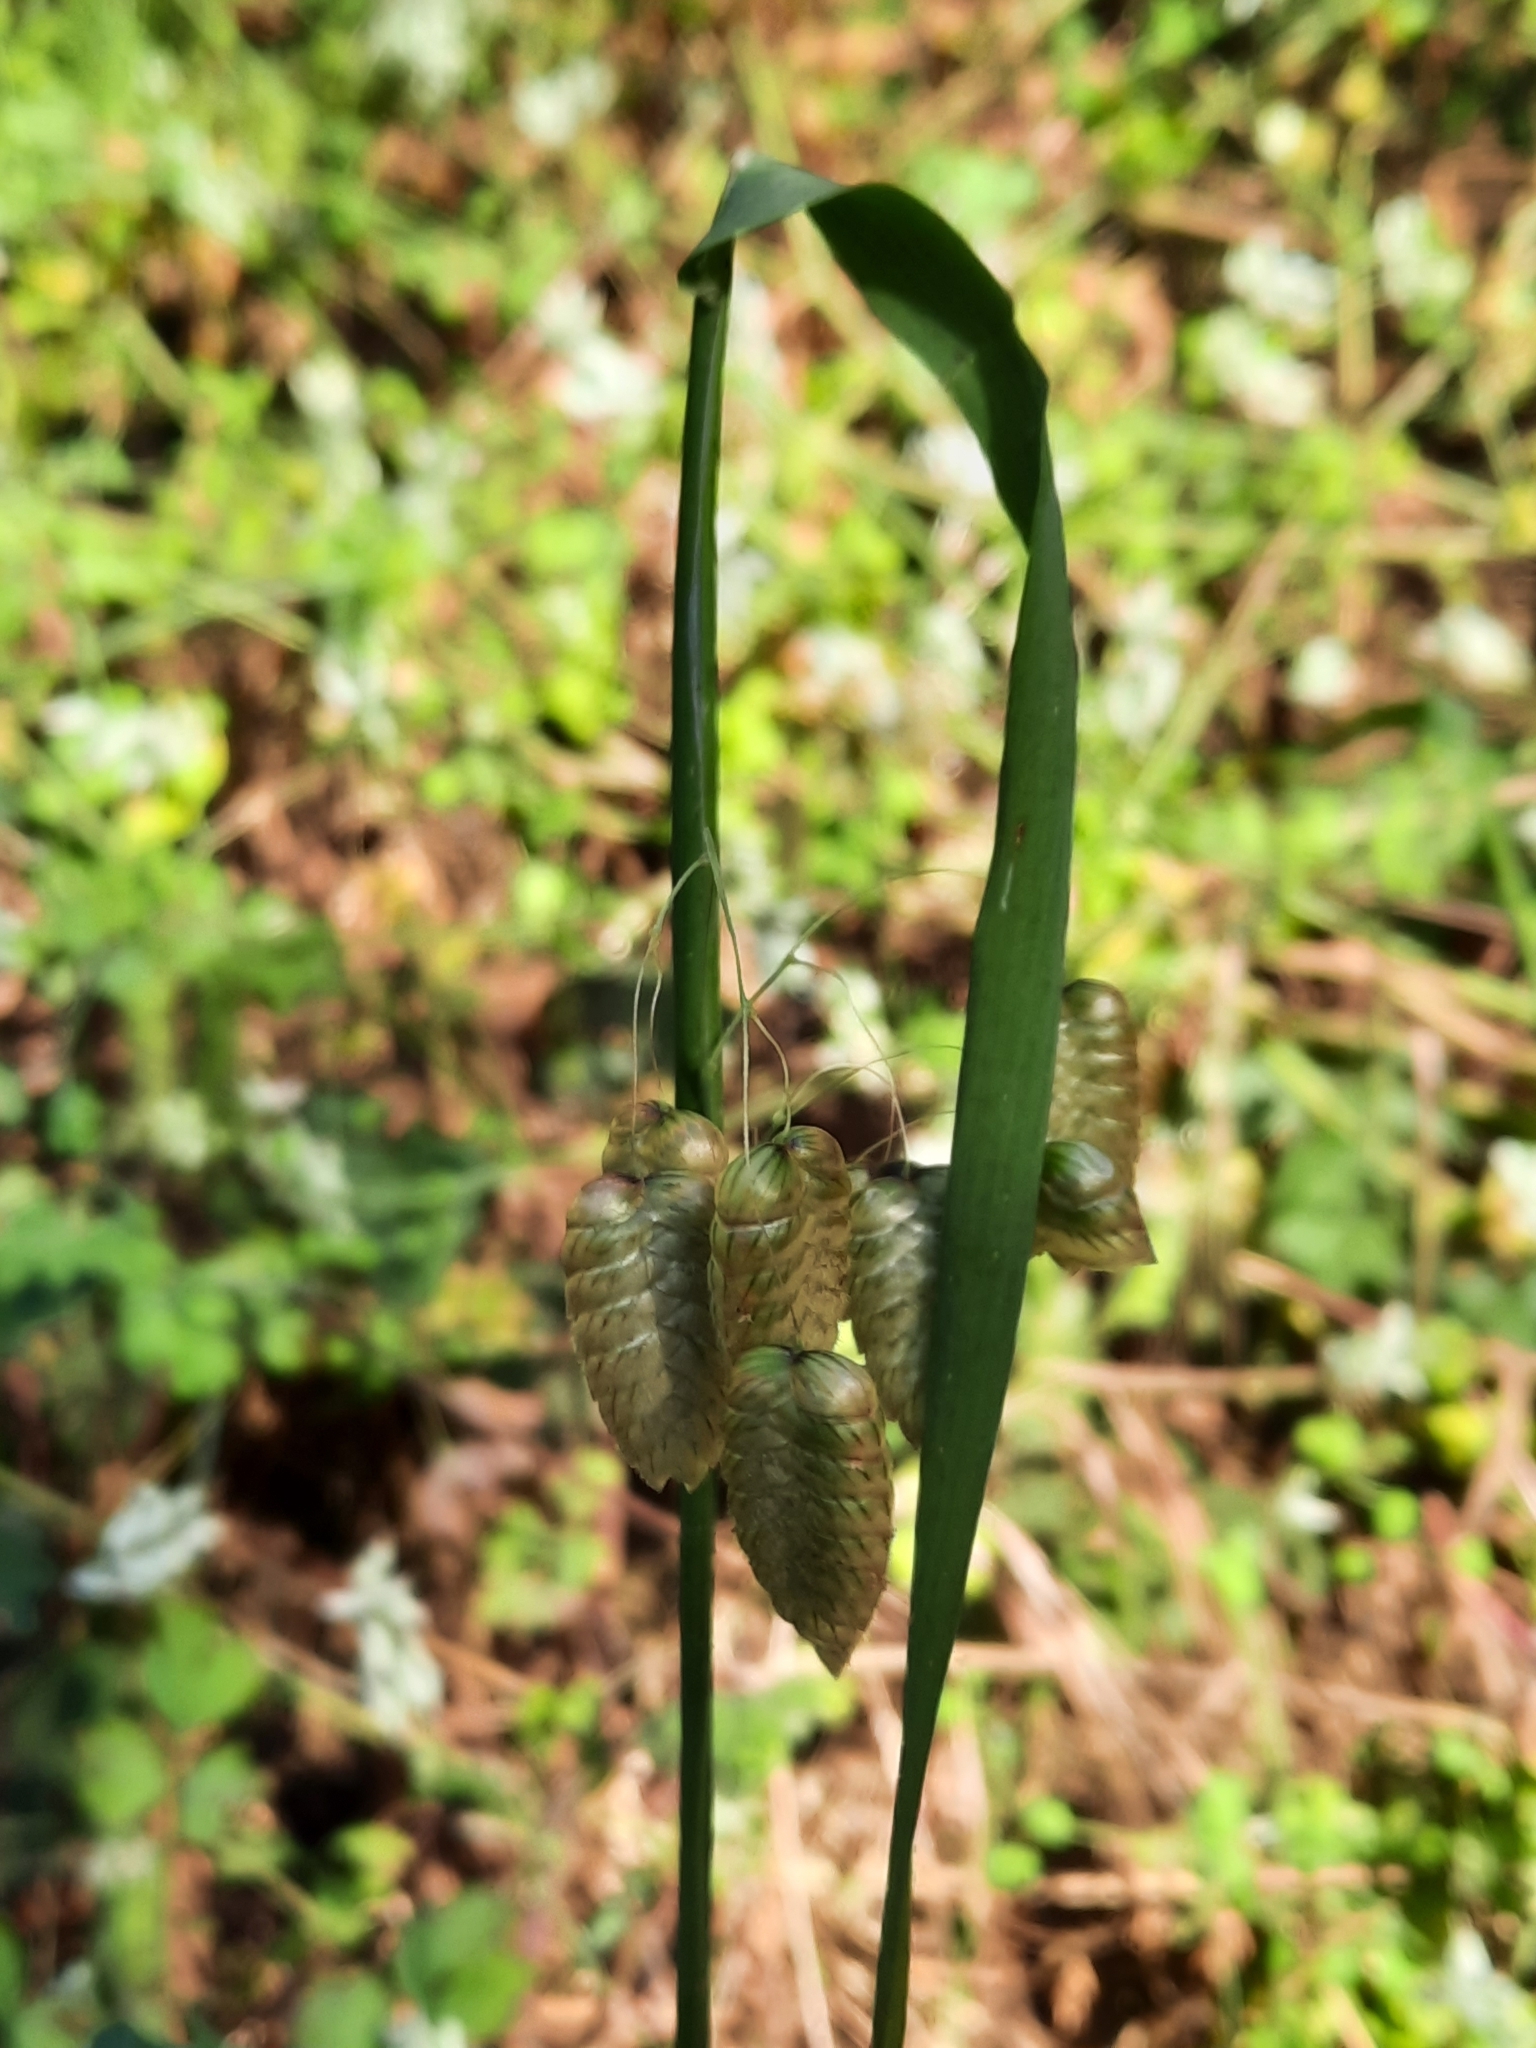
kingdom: Plantae
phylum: Tracheophyta
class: Liliopsida
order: Poales
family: Poaceae
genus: Briza
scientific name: Briza maxima
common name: Big quakinggrass
